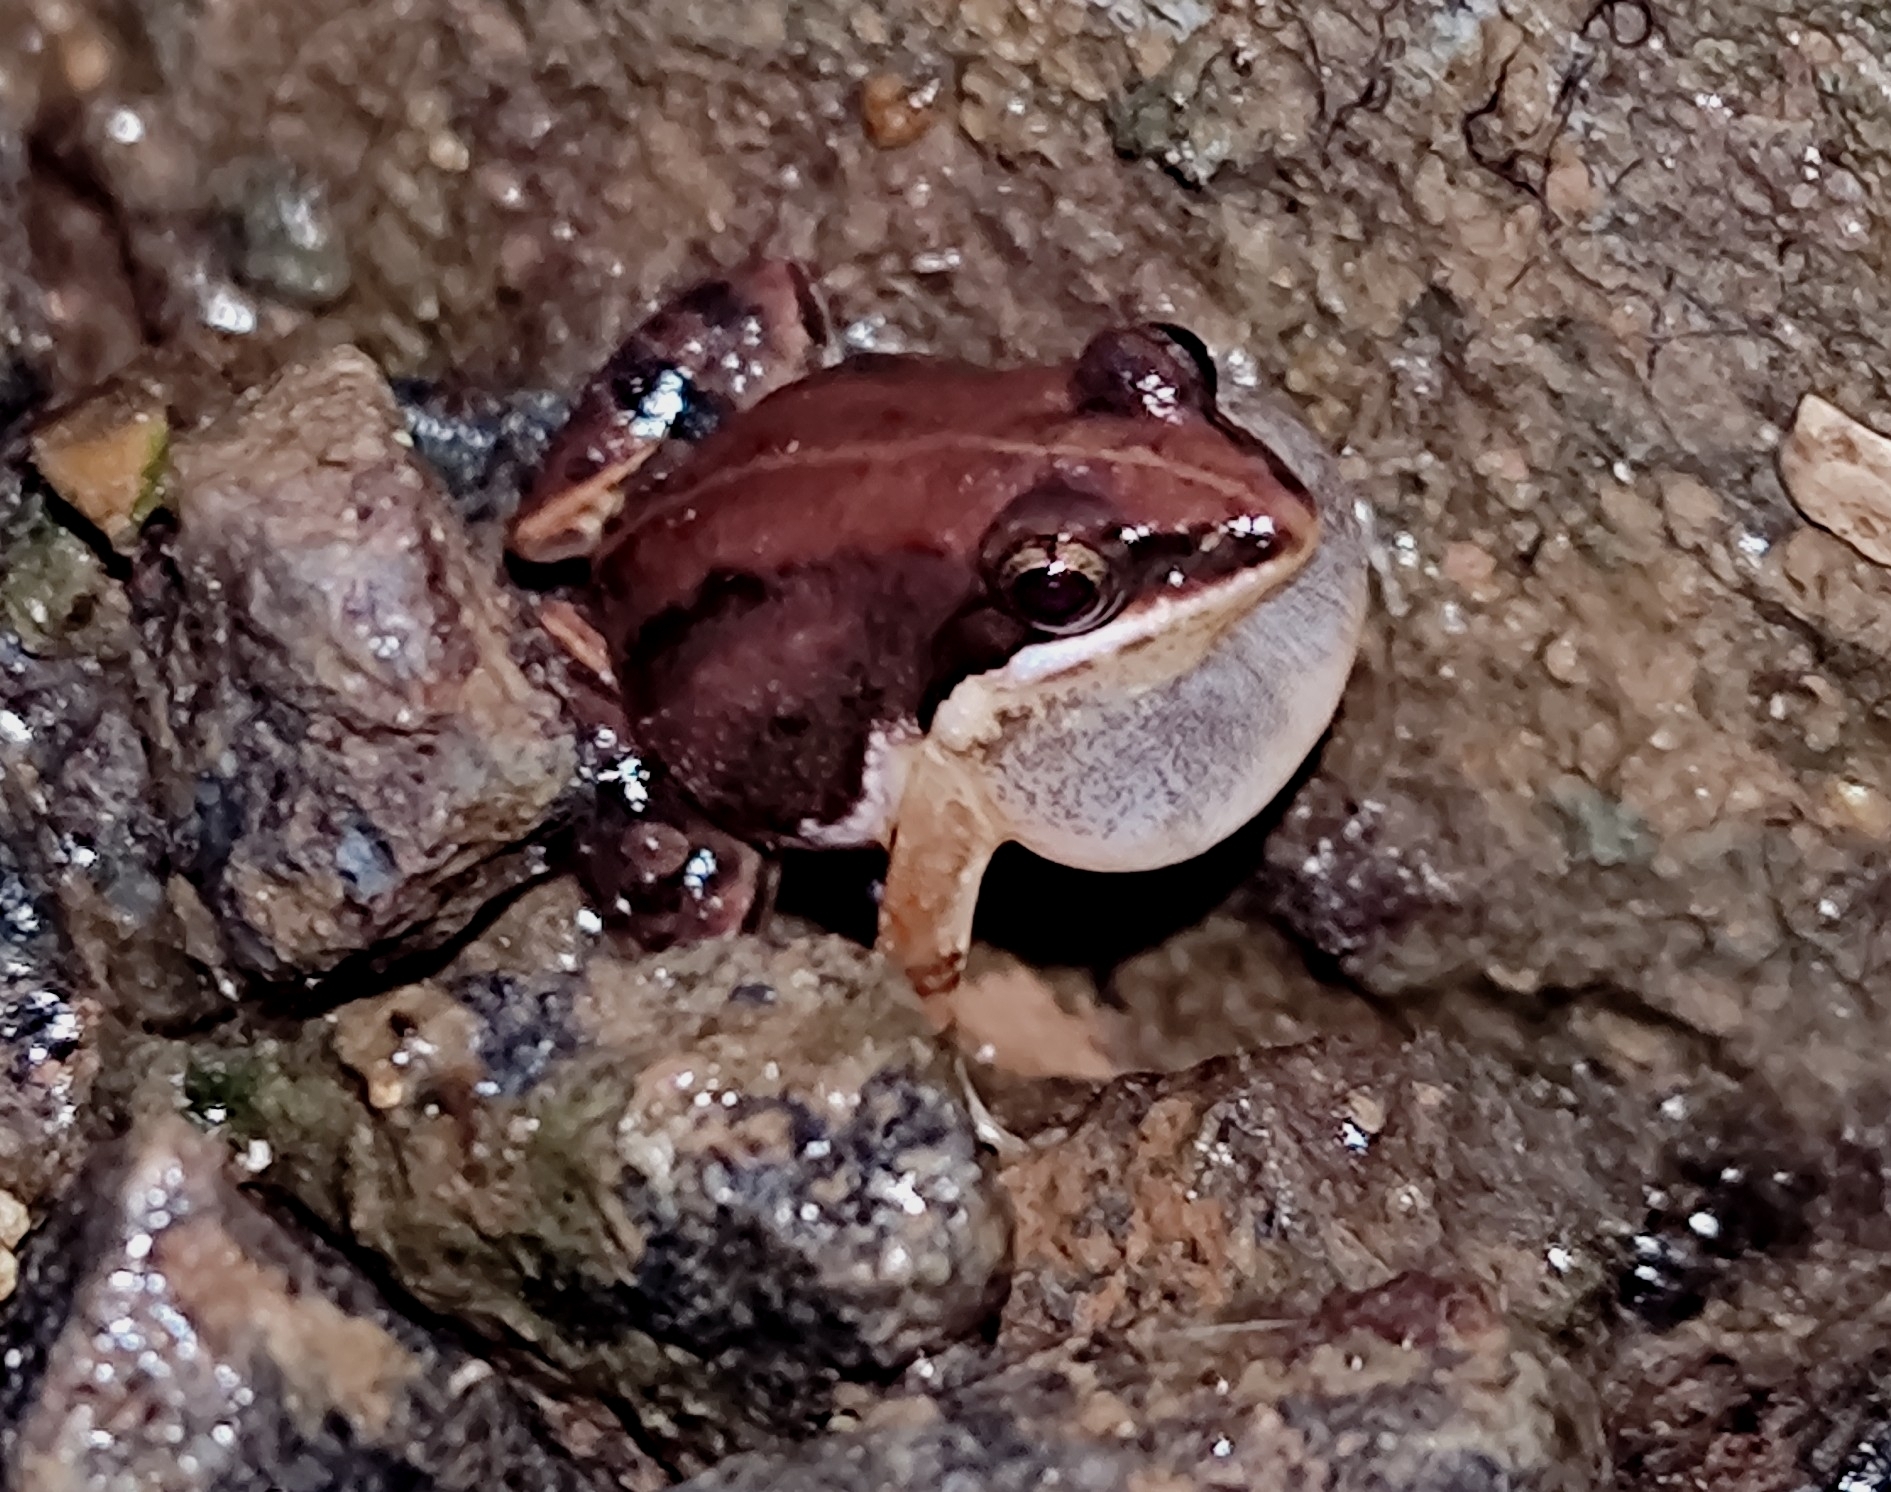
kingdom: Animalia
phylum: Chordata
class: Amphibia
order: Anura
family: Dicroglossidae
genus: Minervarya
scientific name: Minervarya sahyadris
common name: Minevarya frog
